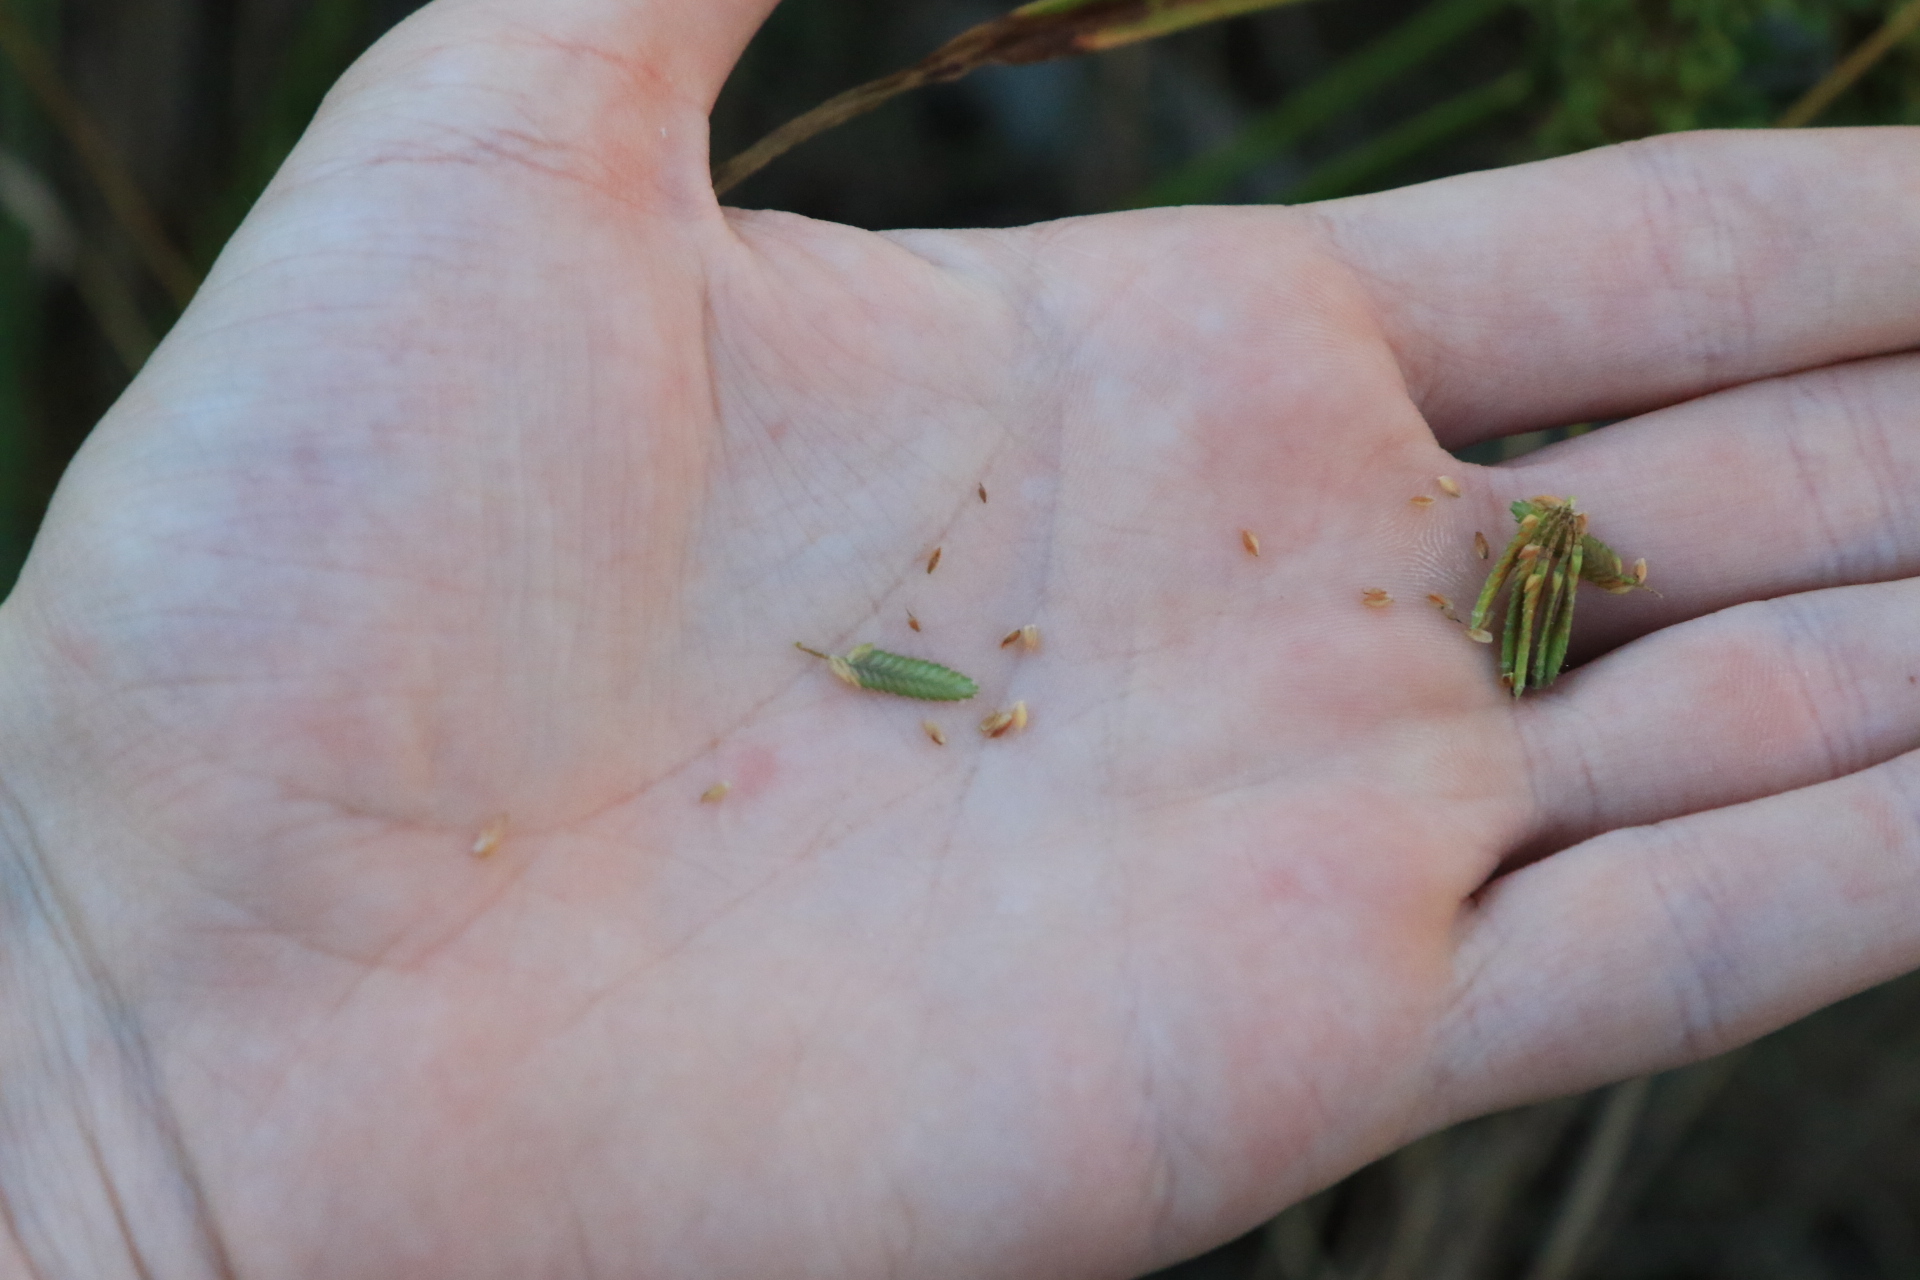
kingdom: Plantae
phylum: Tracheophyta
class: Liliopsida
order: Poales
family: Cyperaceae
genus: Cyperus
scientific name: Cyperus eragrostis
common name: Tall flatsedge
